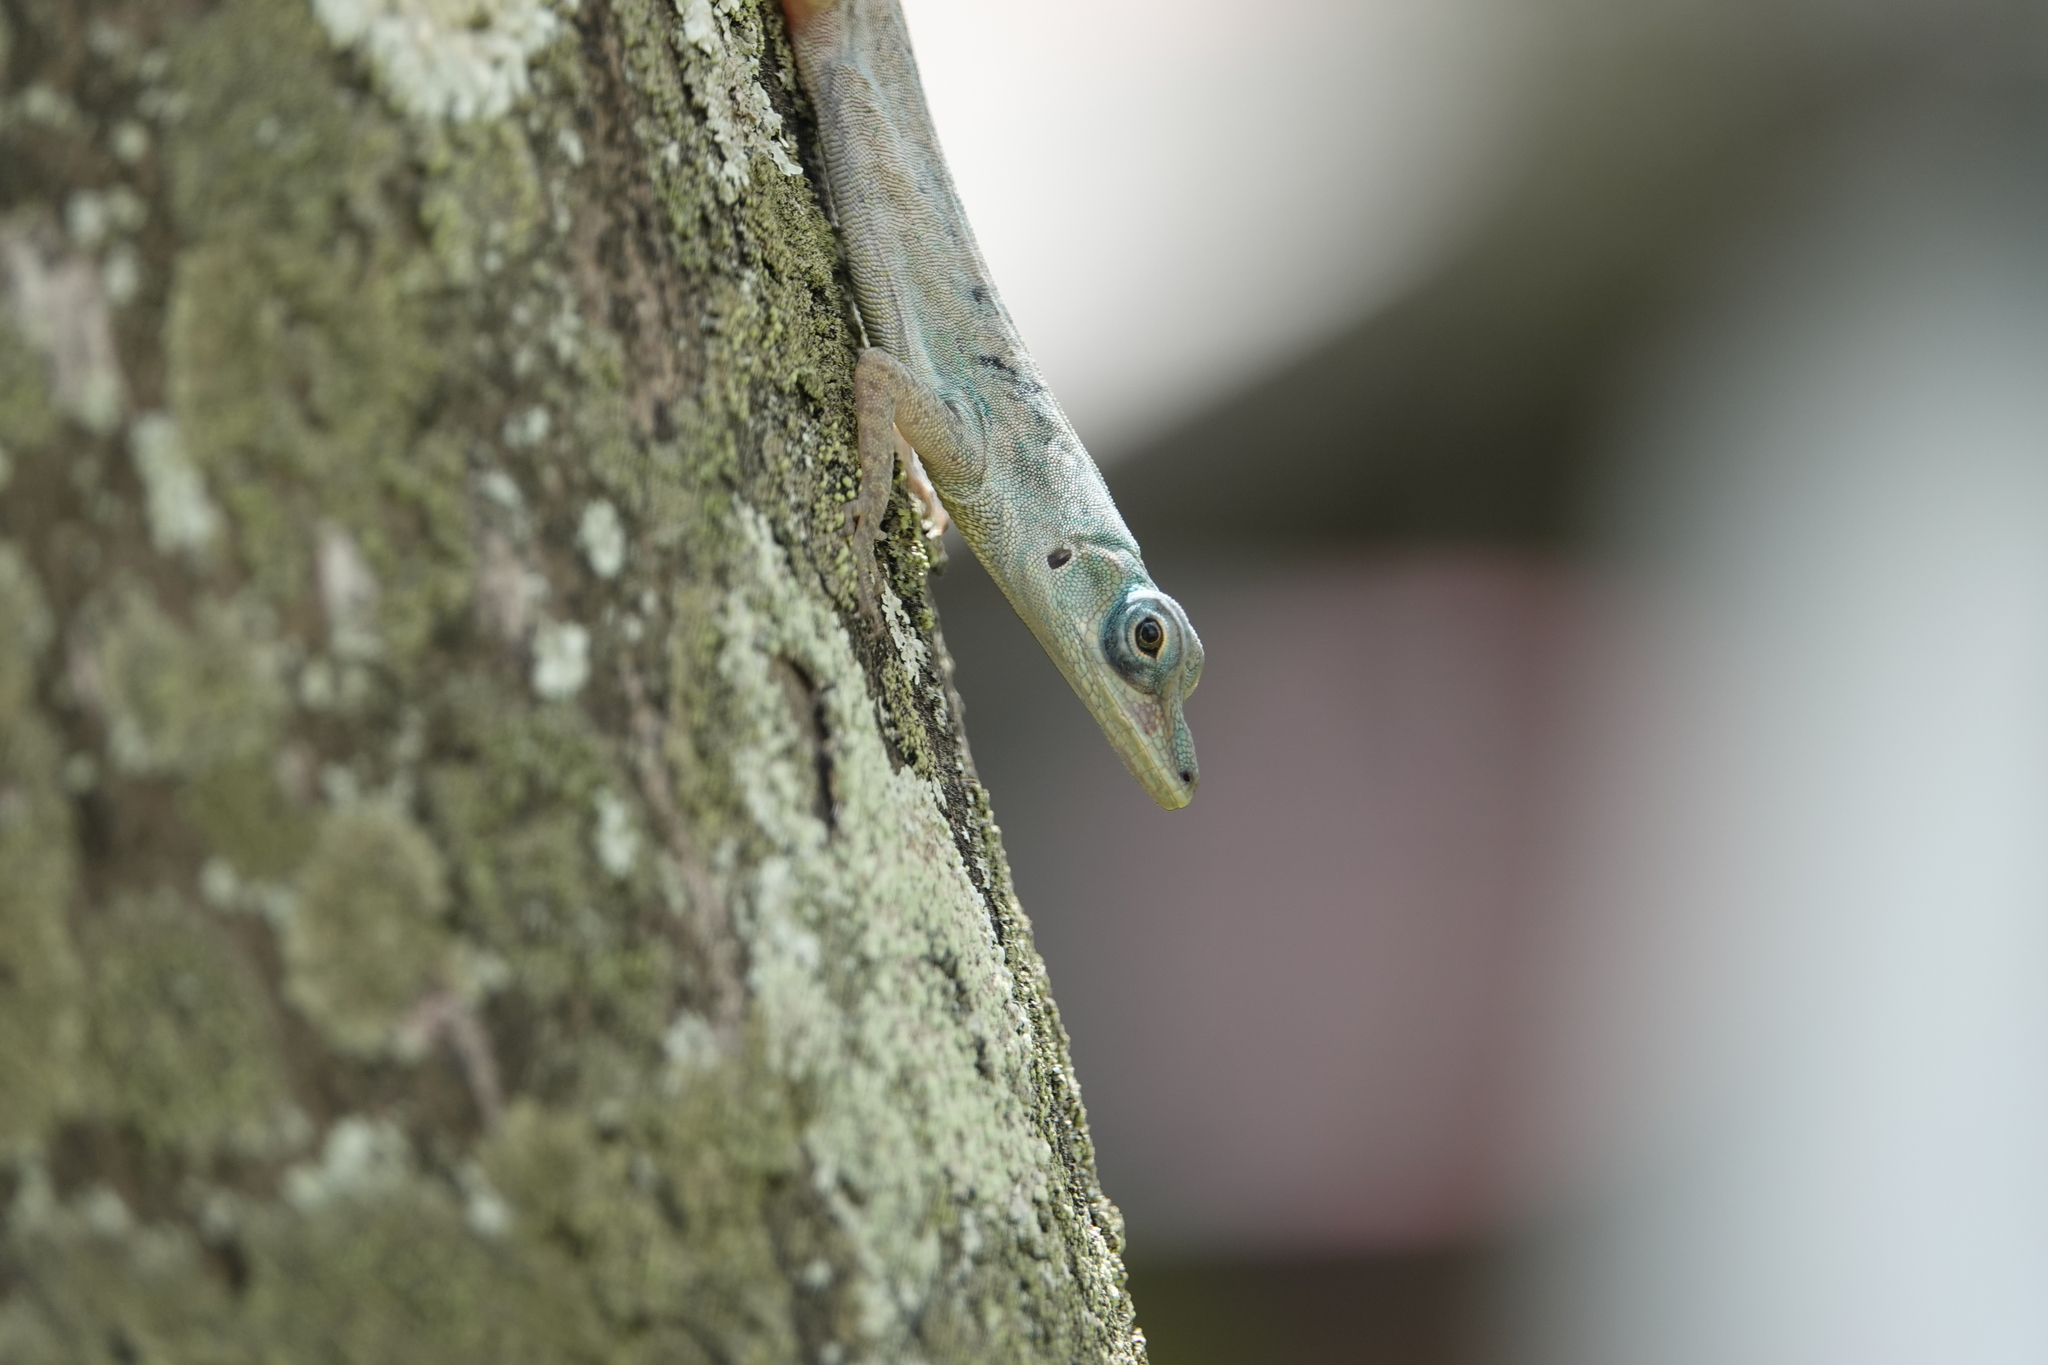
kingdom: Animalia
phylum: Chordata
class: Squamata
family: Dactyloidae
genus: Anolis
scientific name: Anolis aeneus
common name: Bronze anole
